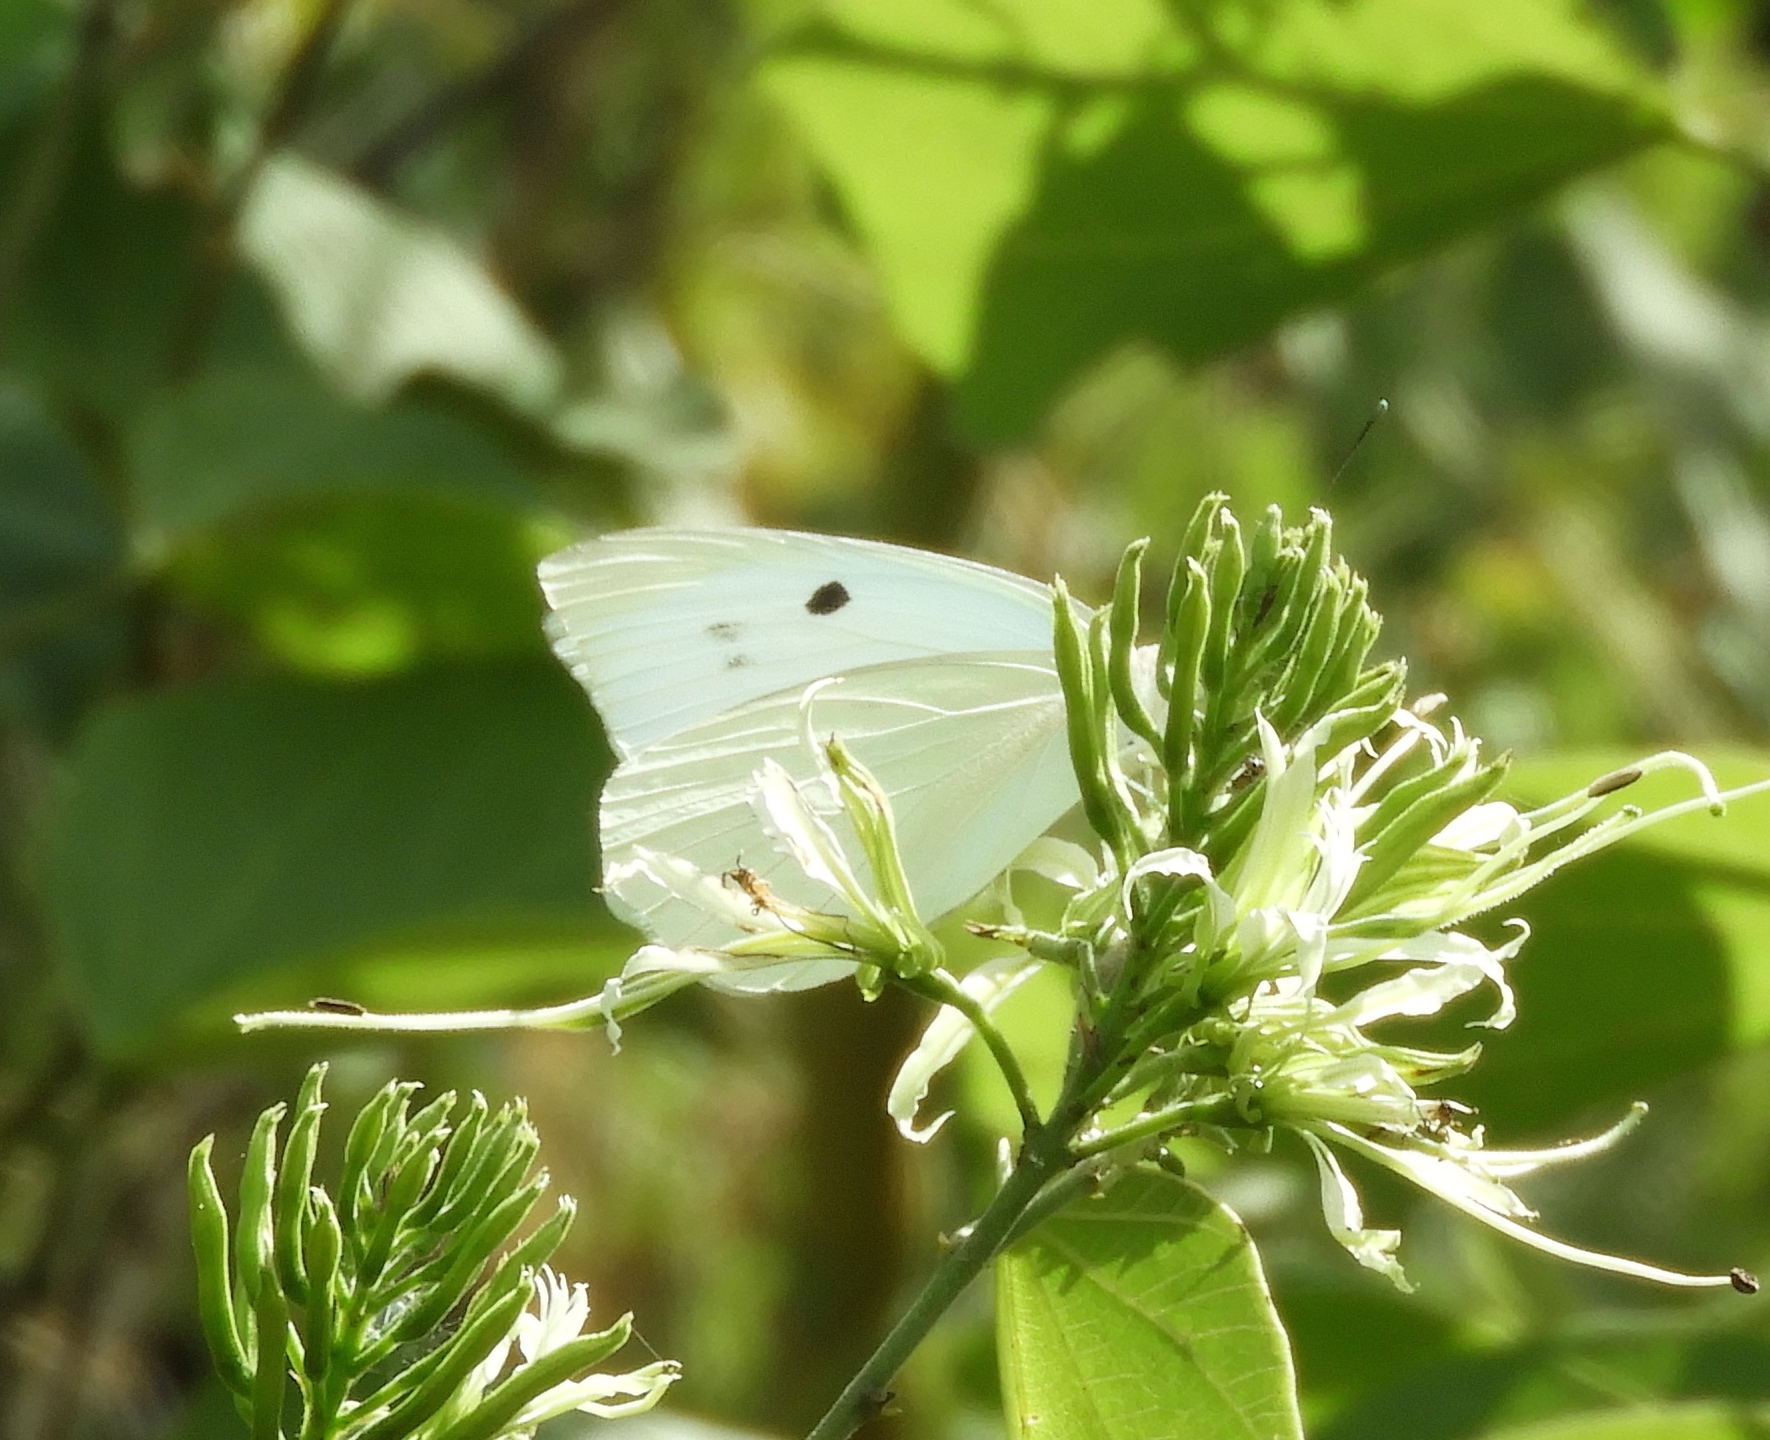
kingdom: Animalia
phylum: Arthropoda
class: Insecta
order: Lepidoptera
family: Pieridae
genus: Ganyra
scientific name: Ganyra josephina
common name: Giant white
